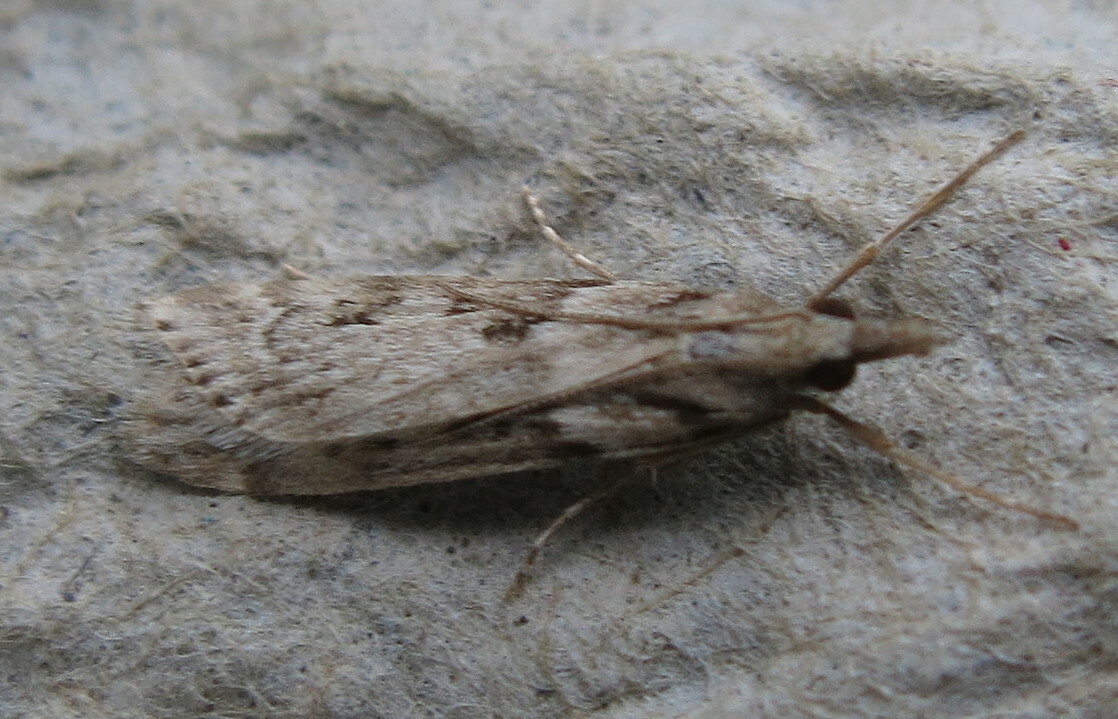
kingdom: Animalia
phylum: Arthropoda
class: Insecta
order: Lepidoptera
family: Crambidae
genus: Eudonia
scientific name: Eudonia angustea
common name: Narrow-winged grey
